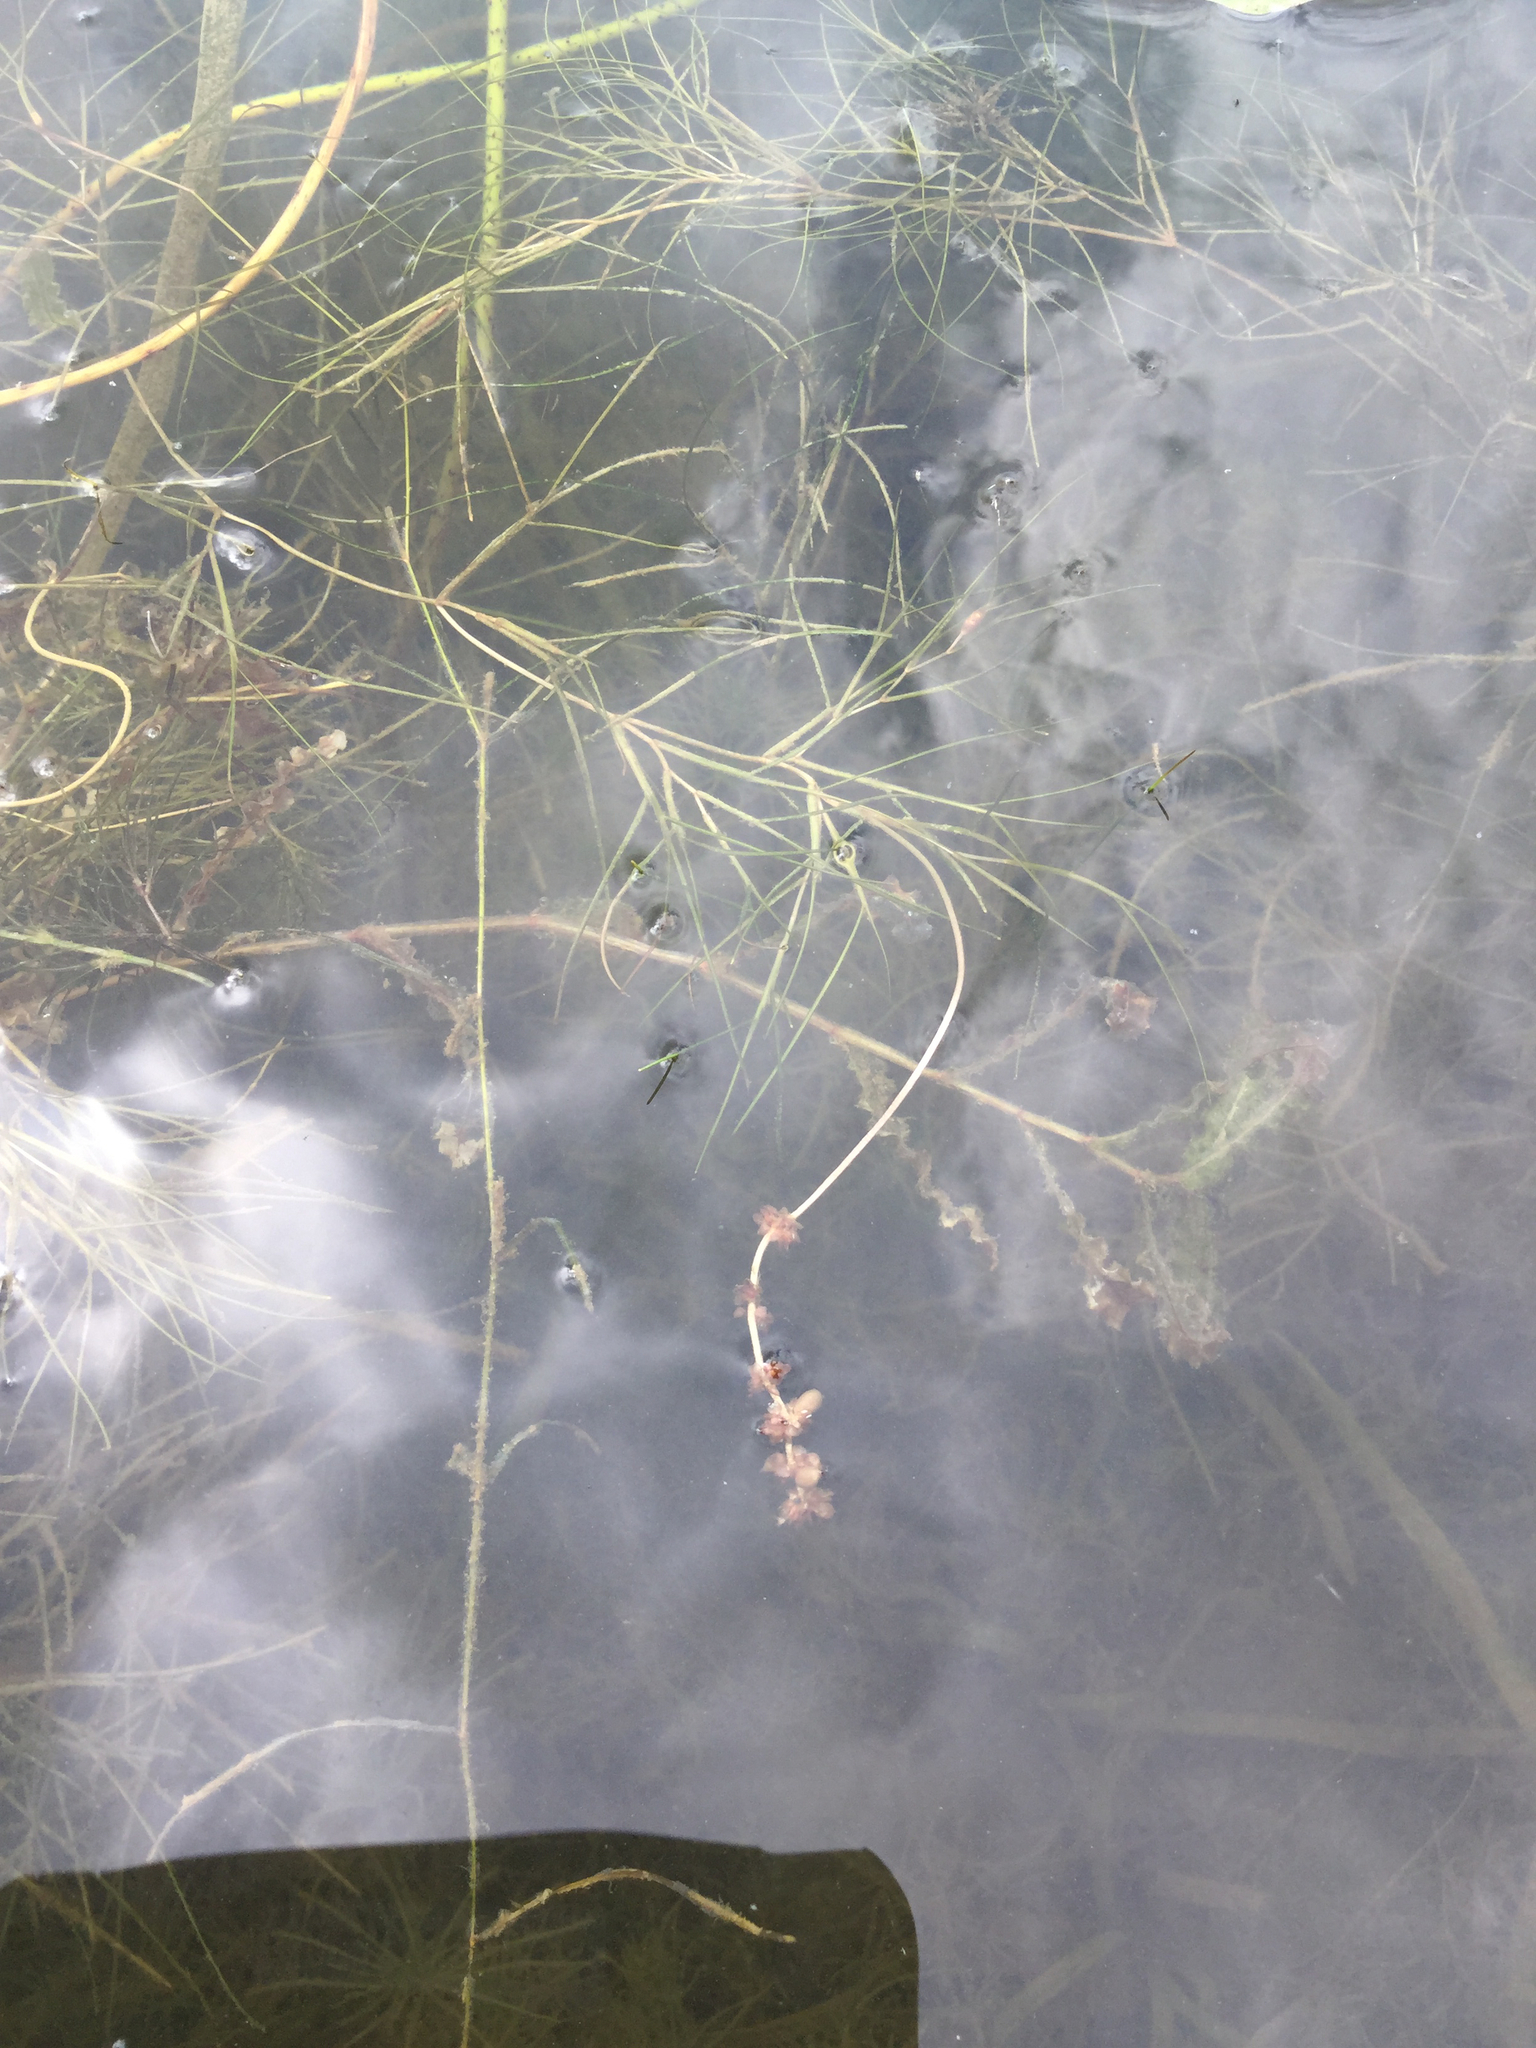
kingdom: Plantae
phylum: Tracheophyta
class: Liliopsida
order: Alismatales
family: Potamogetonaceae
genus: Stuckenia
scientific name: Stuckenia pectinata
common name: Sago pondweed
